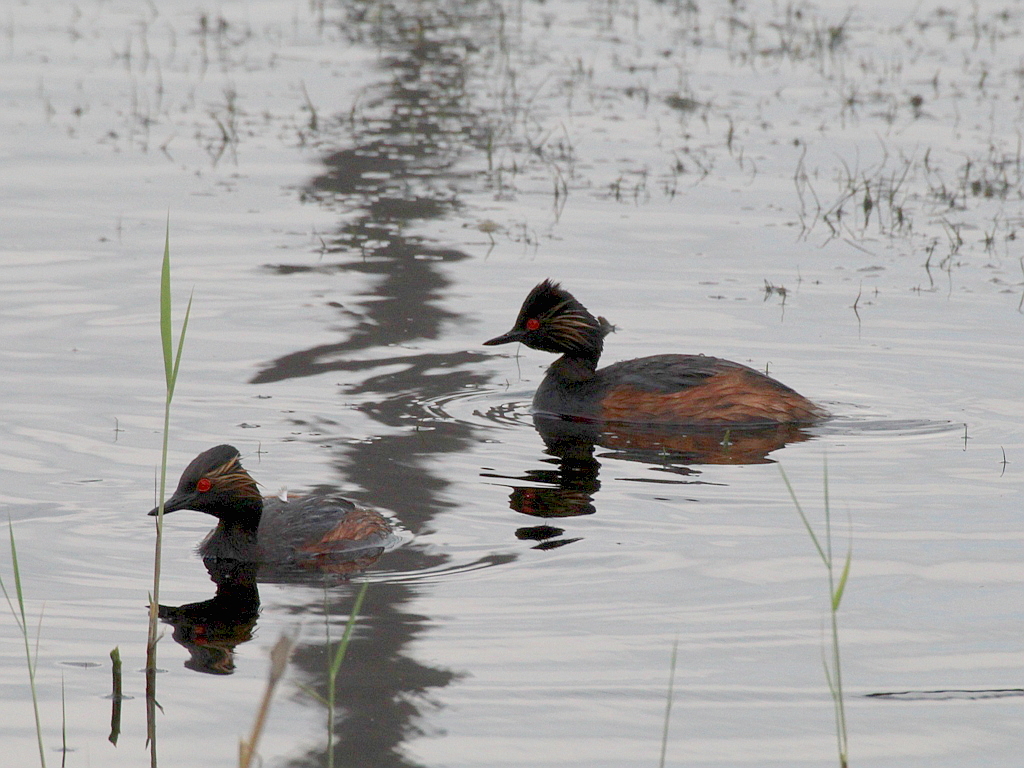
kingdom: Animalia
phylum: Chordata
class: Aves
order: Podicipediformes
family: Podicipedidae
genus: Podiceps
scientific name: Podiceps nigricollis
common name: Black-necked grebe
